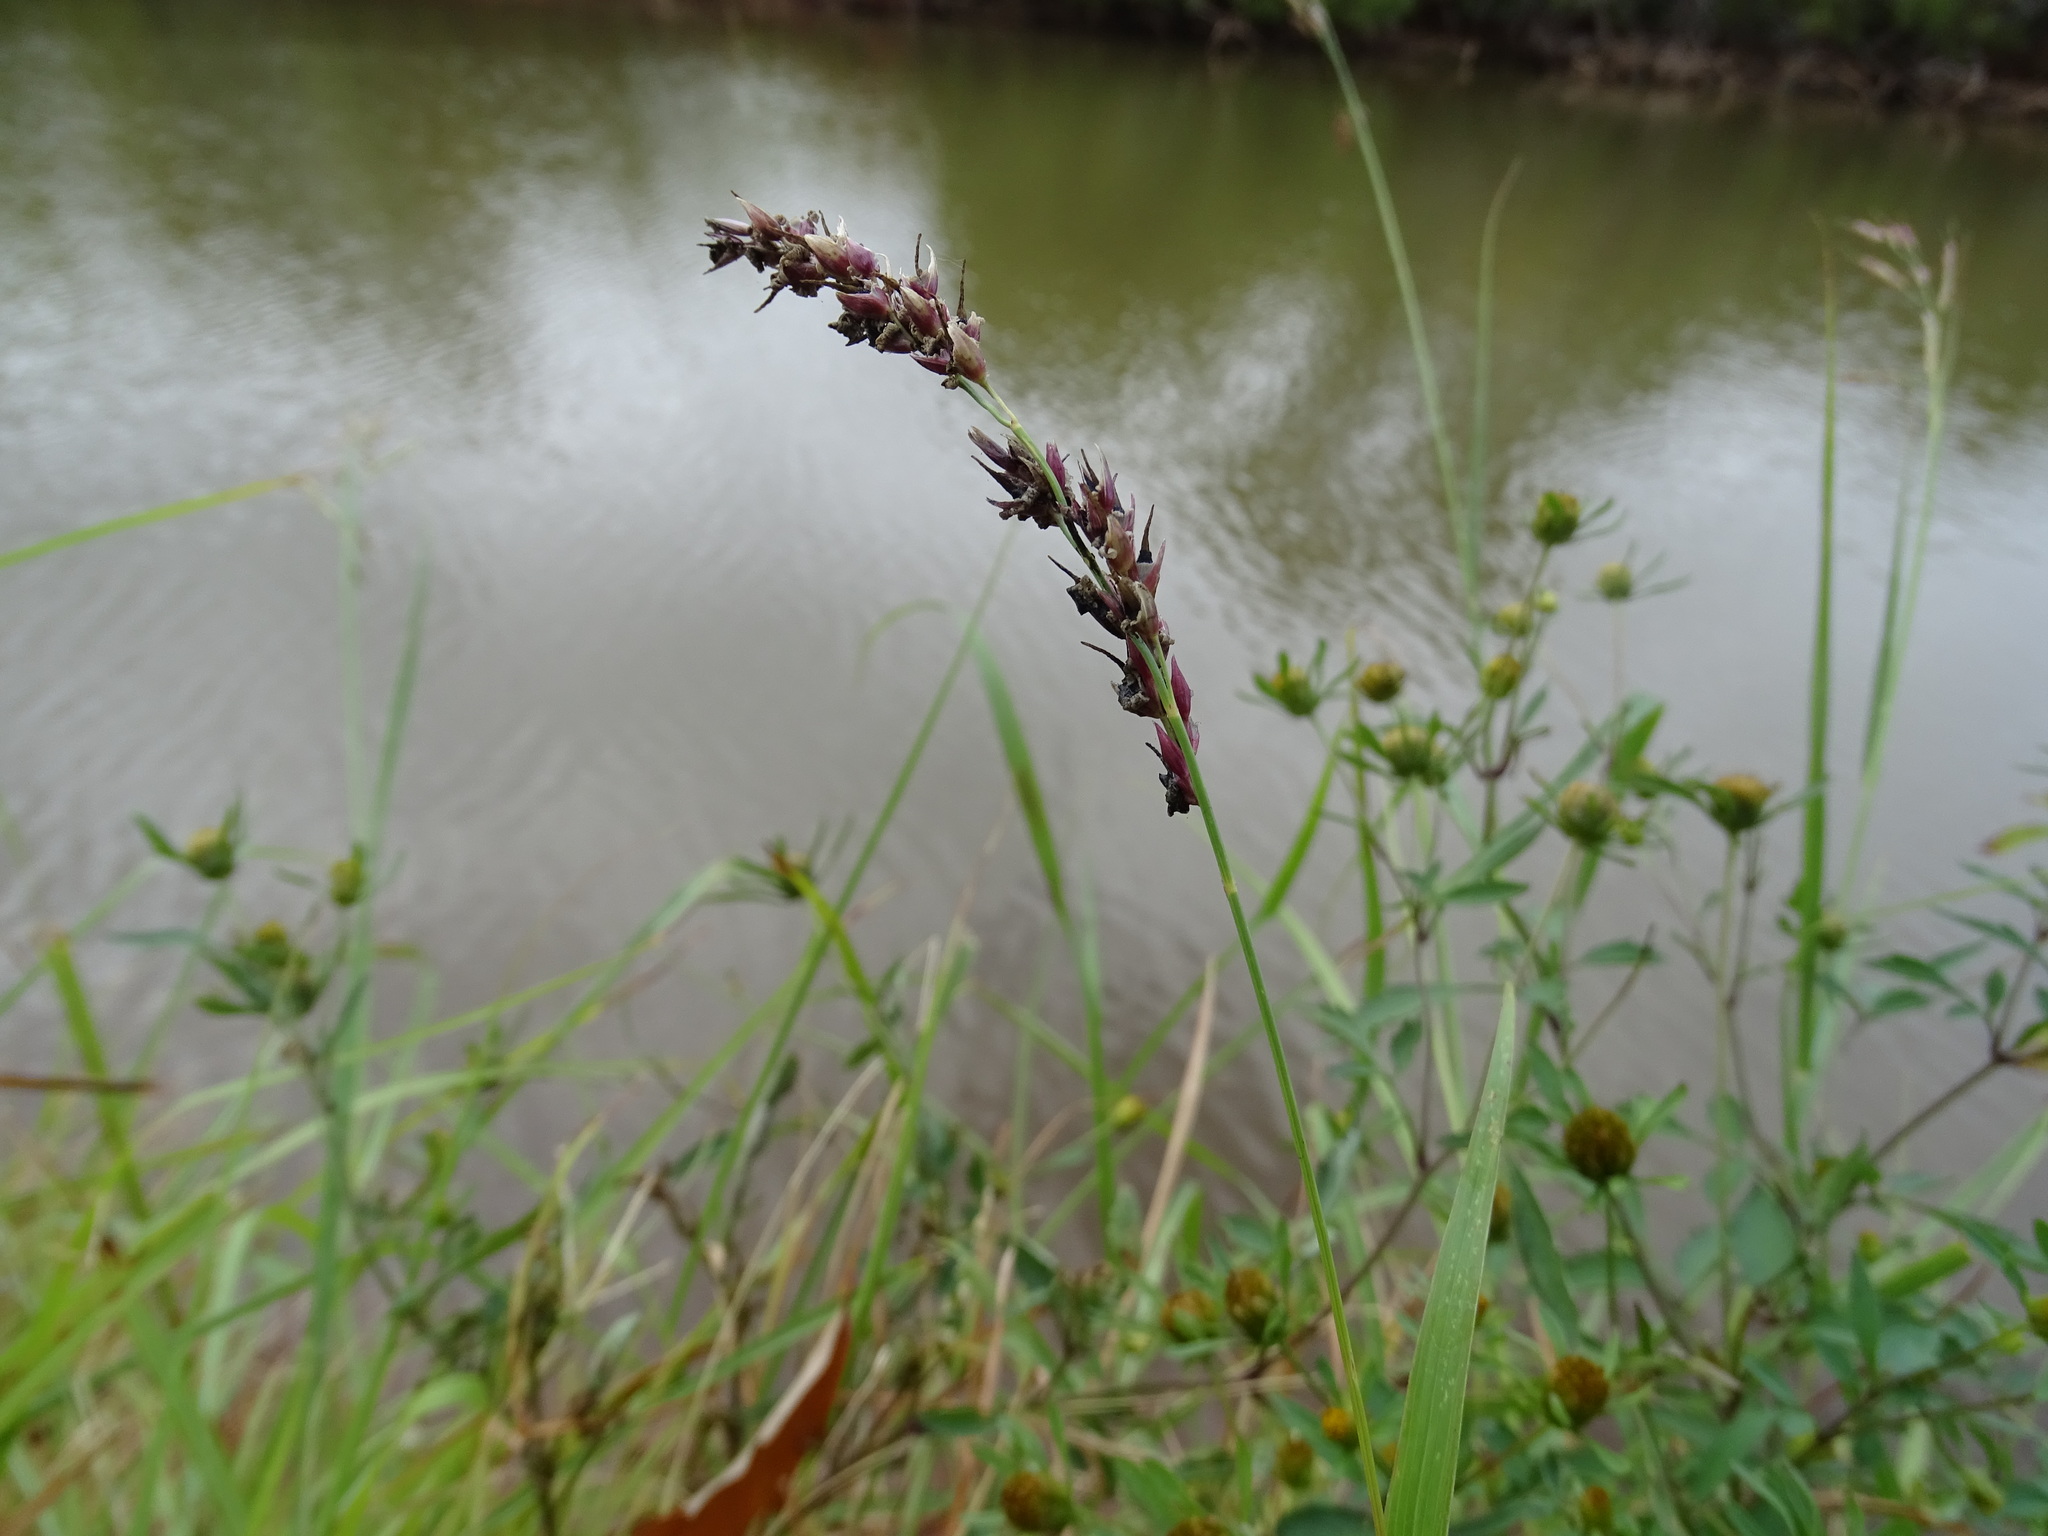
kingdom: Plantae
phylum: Tracheophyta
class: Liliopsida
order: Poales
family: Poaceae
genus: Sorghum
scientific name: Sorghum halepense
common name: Johnson-grass
